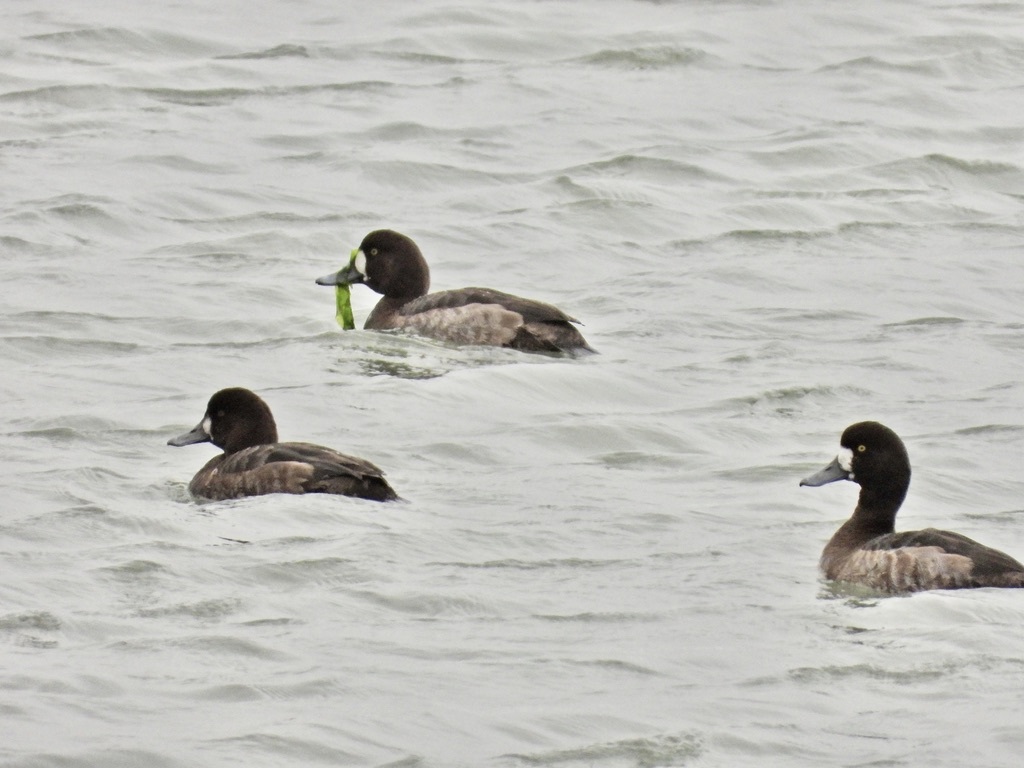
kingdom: Animalia
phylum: Chordata
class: Aves
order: Anseriformes
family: Anatidae
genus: Aythya
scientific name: Aythya marila
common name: Greater scaup
